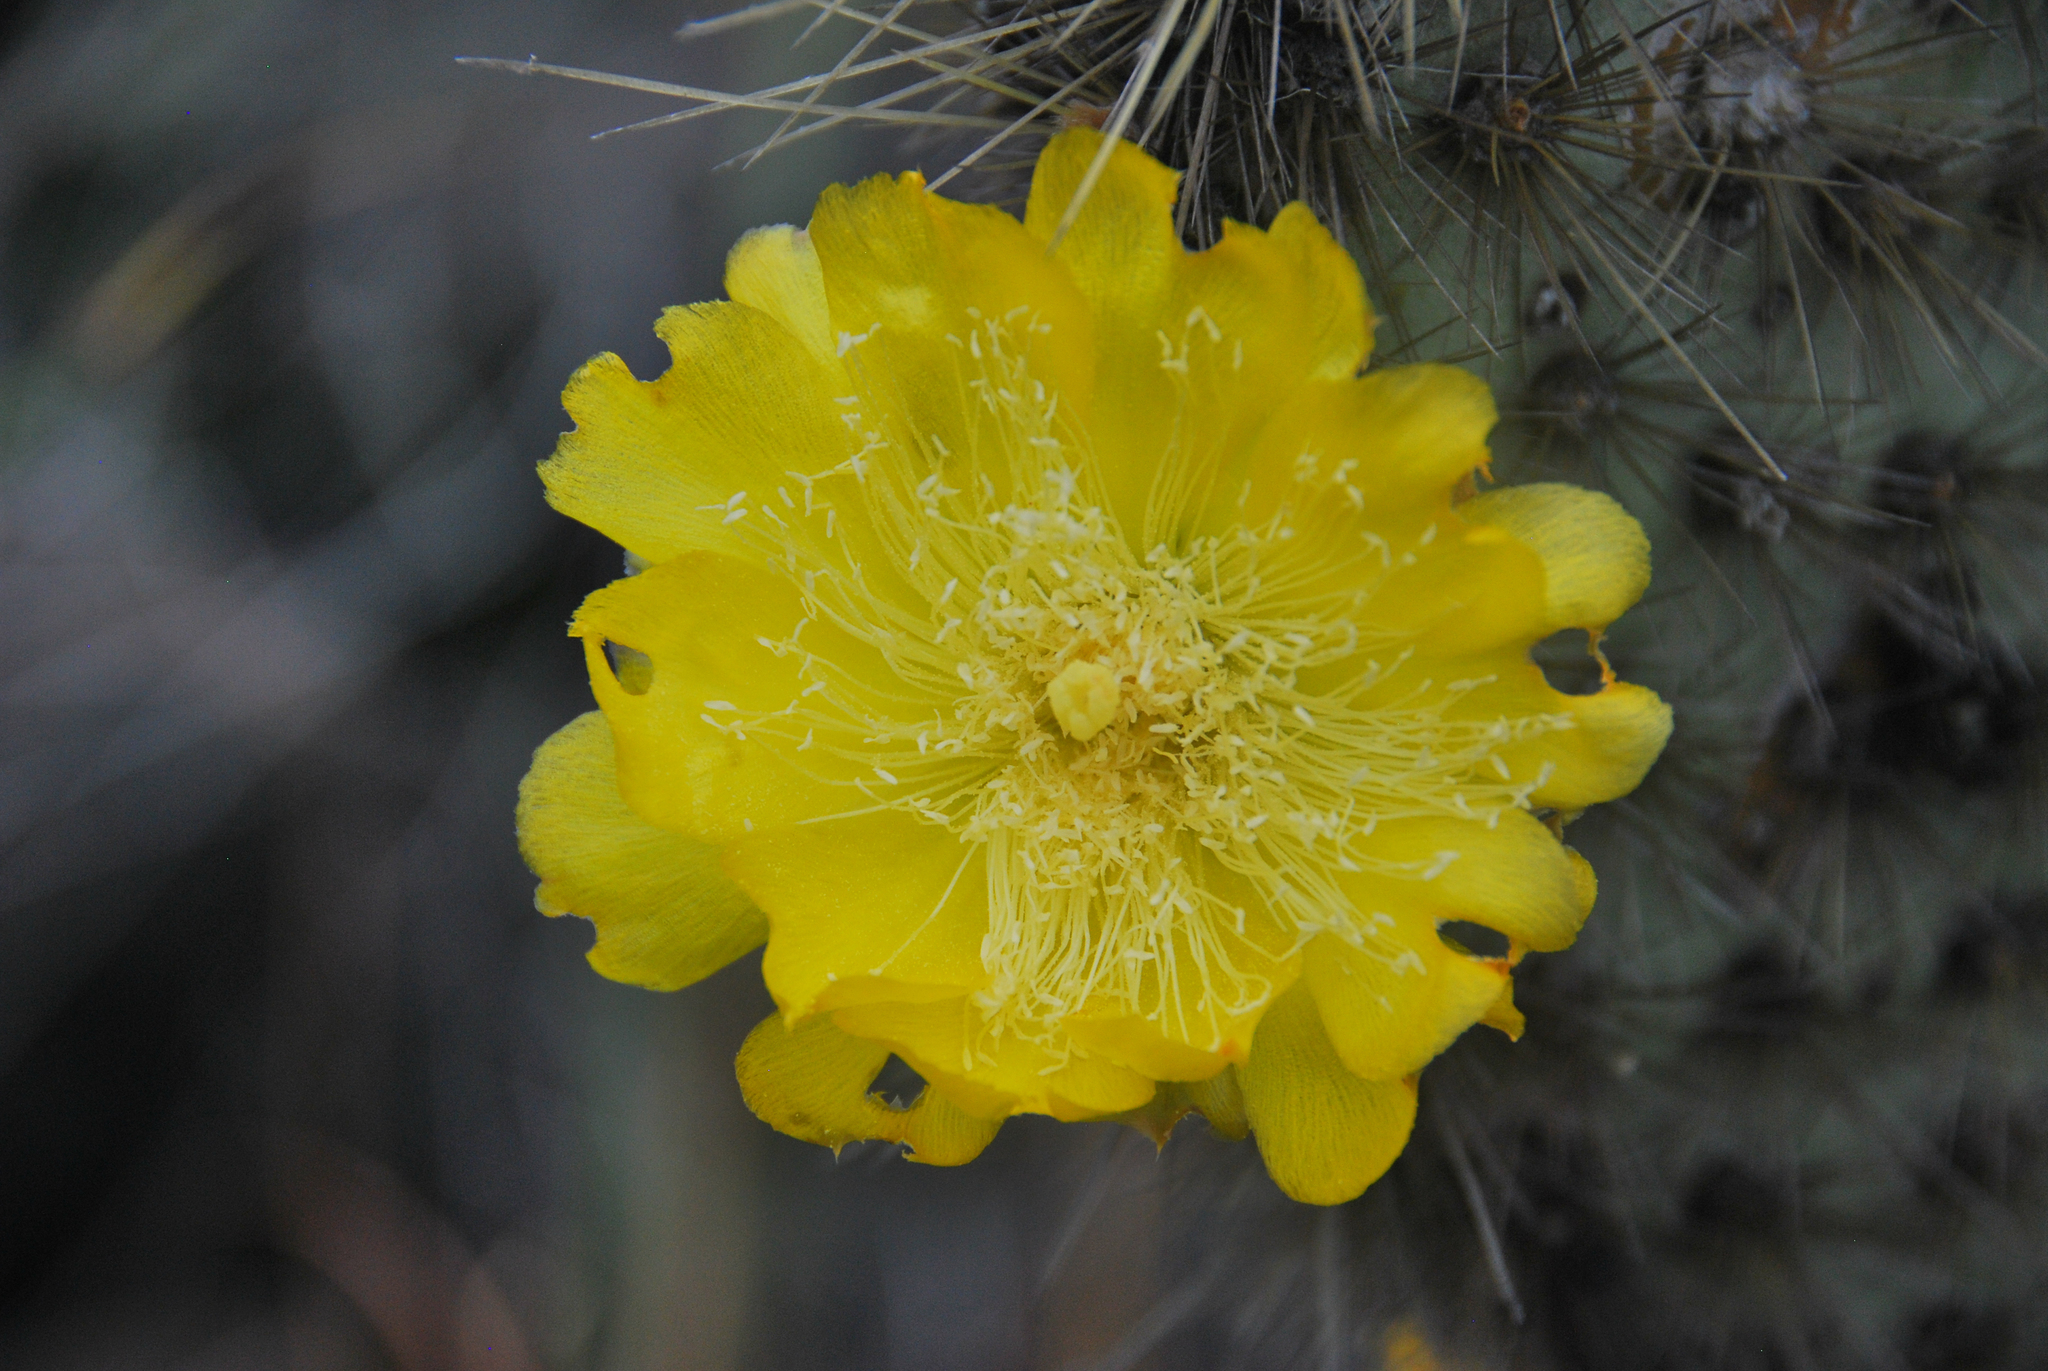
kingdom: Plantae
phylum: Tracheophyta
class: Magnoliopsida
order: Caryophyllales
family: Cactaceae
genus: Opuntia
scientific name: Opuntia galapageia
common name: Galápagos prickly pear
